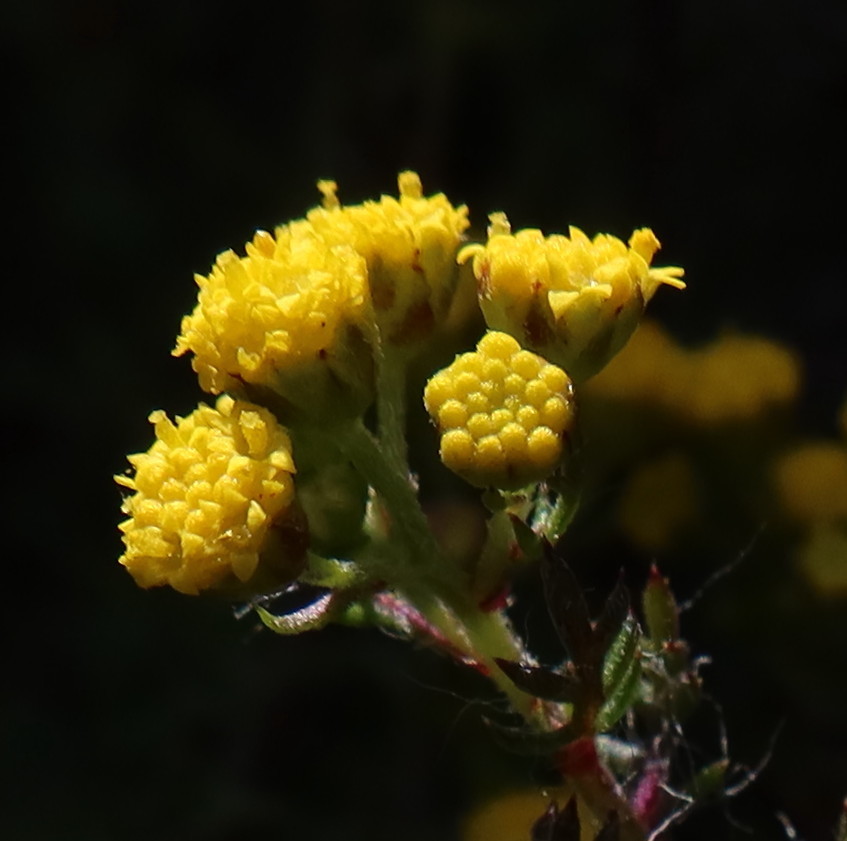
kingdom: Plantae
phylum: Tracheophyta
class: Magnoliopsida
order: Asterales
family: Asteraceae
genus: Hippia
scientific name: Hippia pilosa
